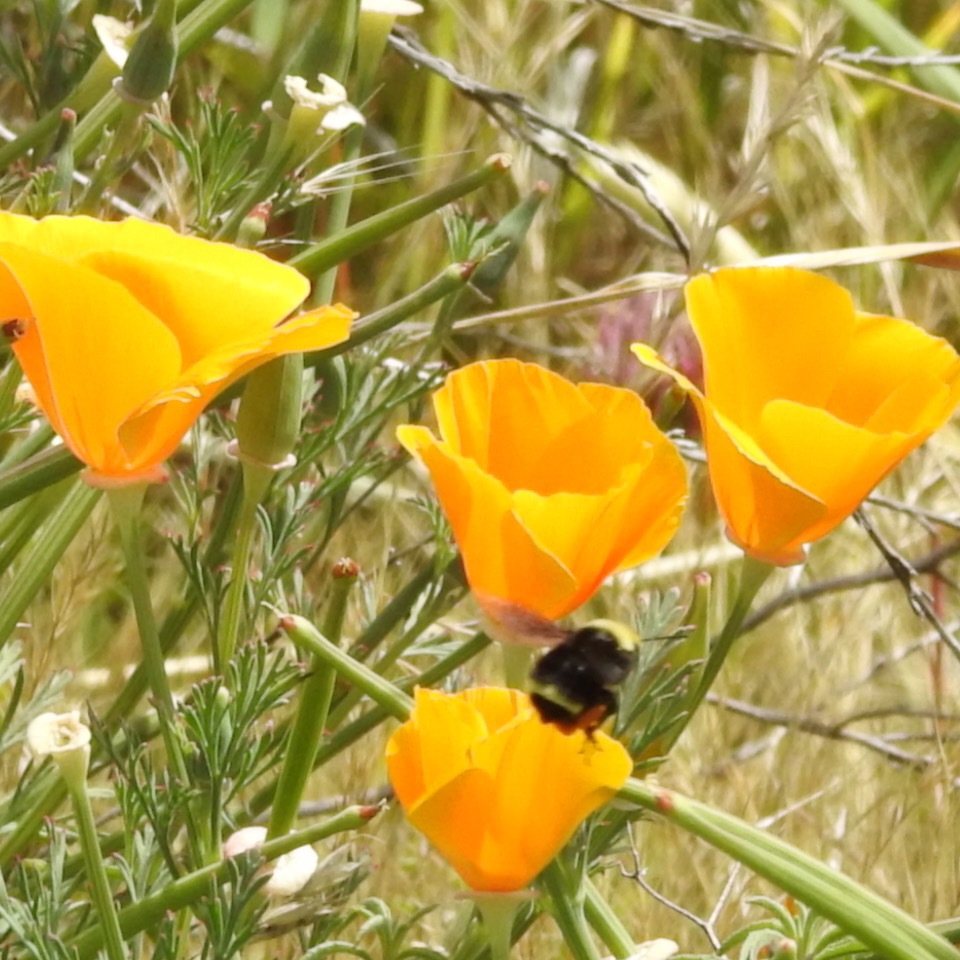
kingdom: Plantae
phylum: Tracheophyta
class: Magnoliopsida
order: Ranunculales
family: Papaveraceae
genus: Eschscholzia
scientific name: Eschscholzia californica
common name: California poppy
